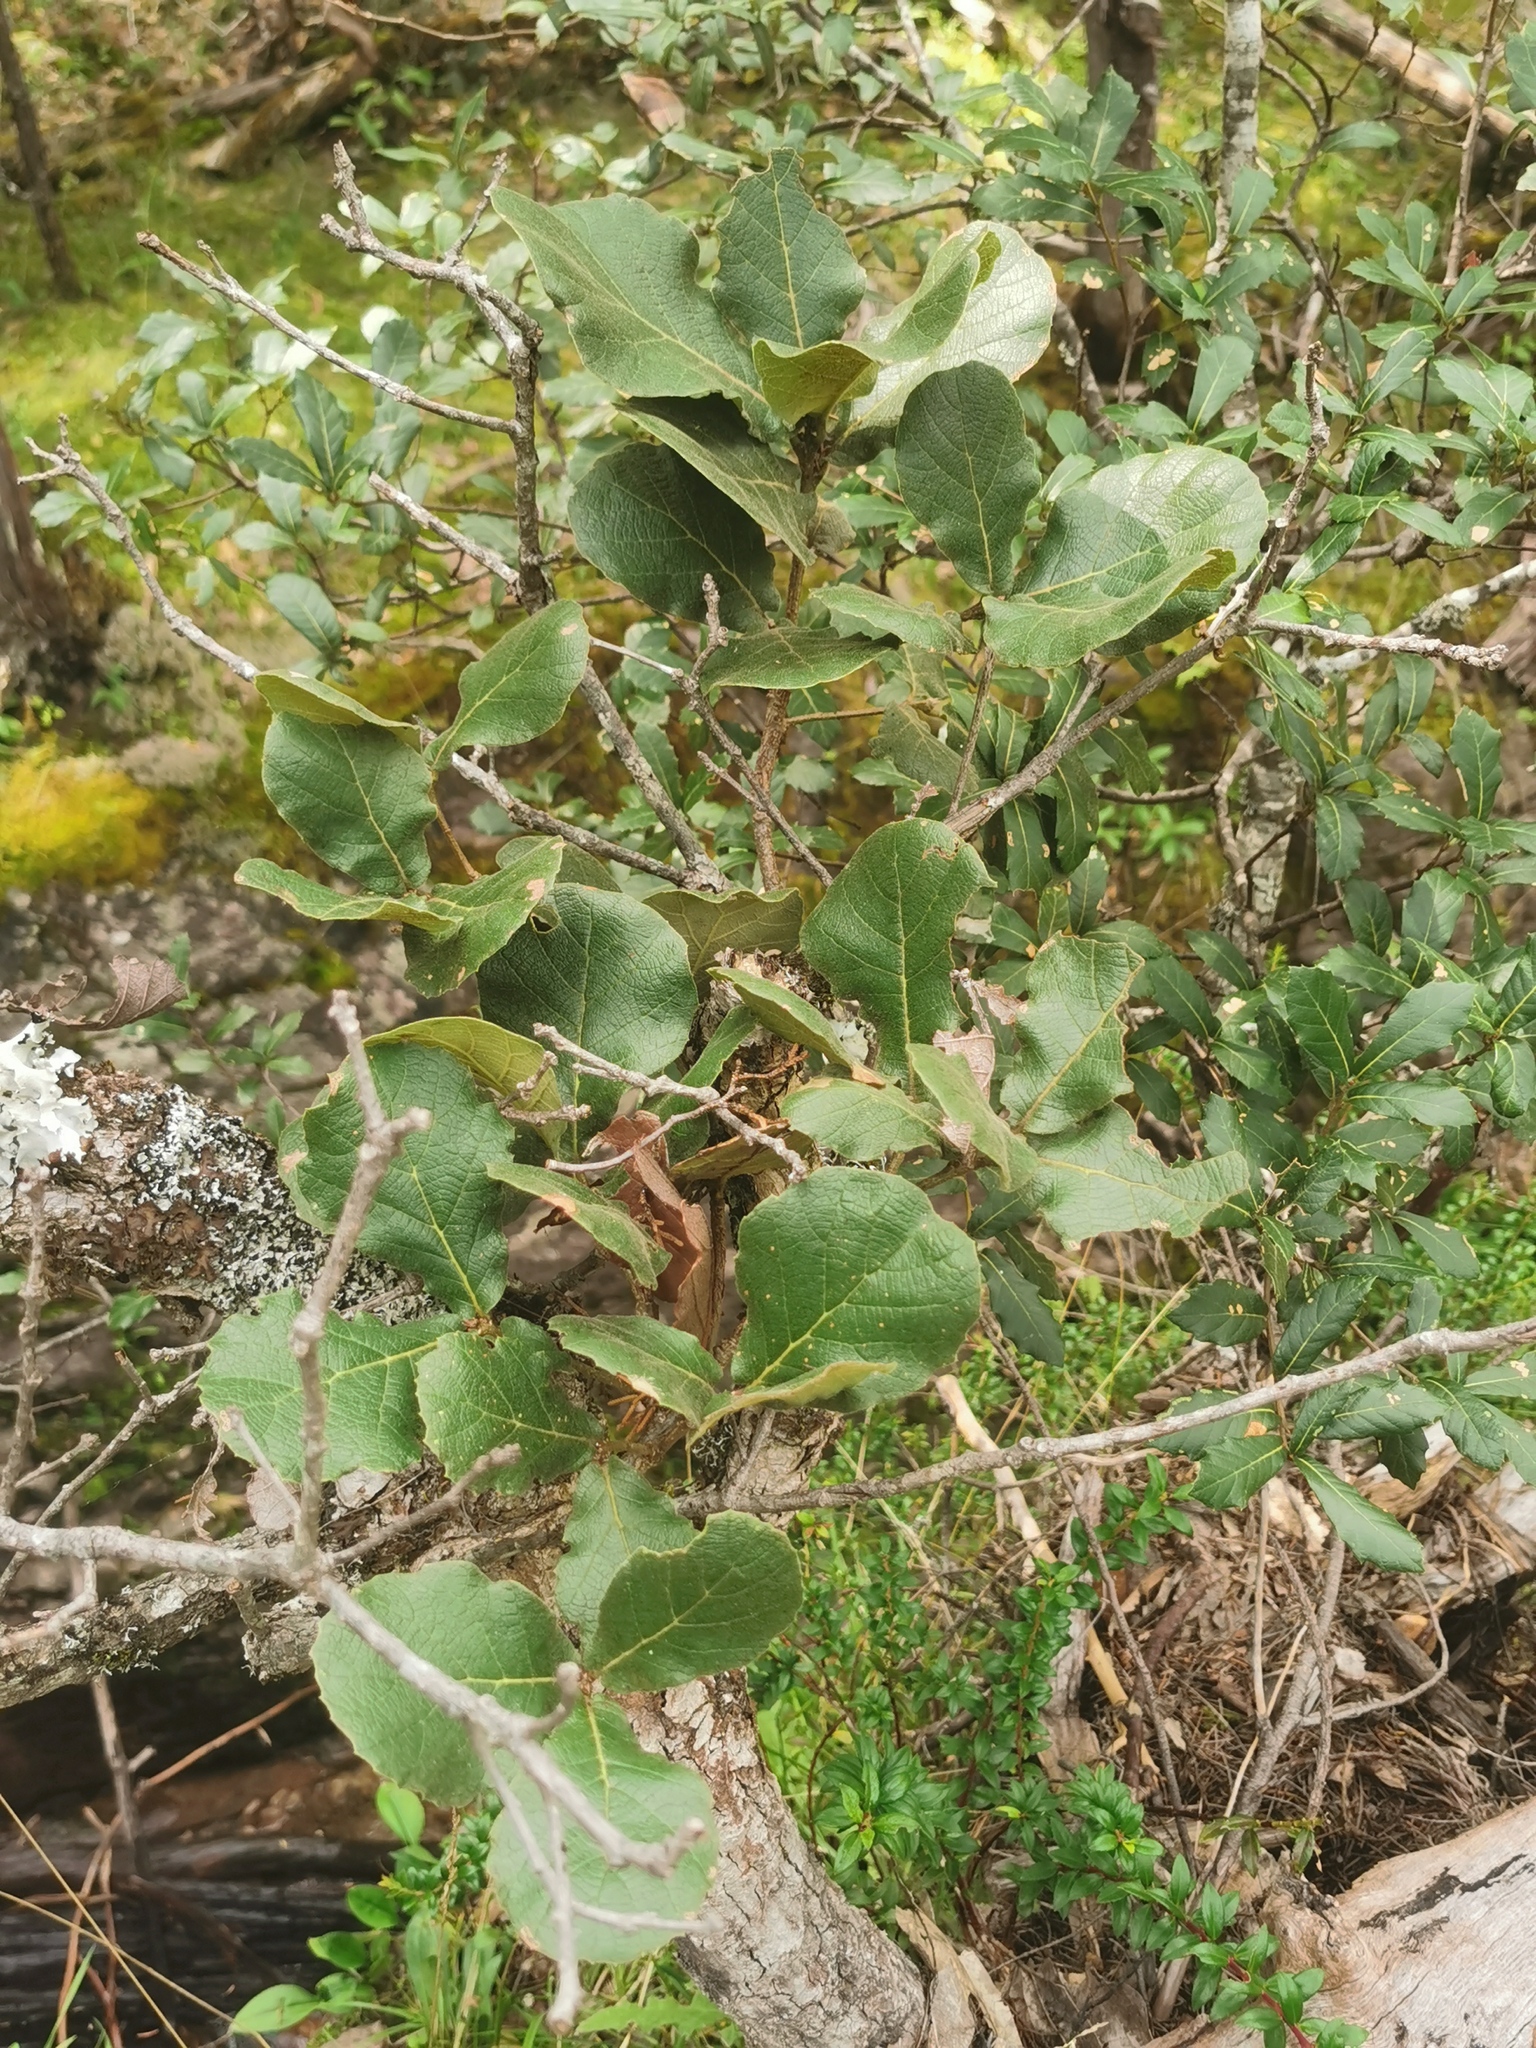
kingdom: Plantae
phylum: Tracheophyta
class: Magnoliopsida
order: Fagales
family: Fagaceae
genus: Quercus
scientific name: Quercus rugosa
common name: Netleaf oak
